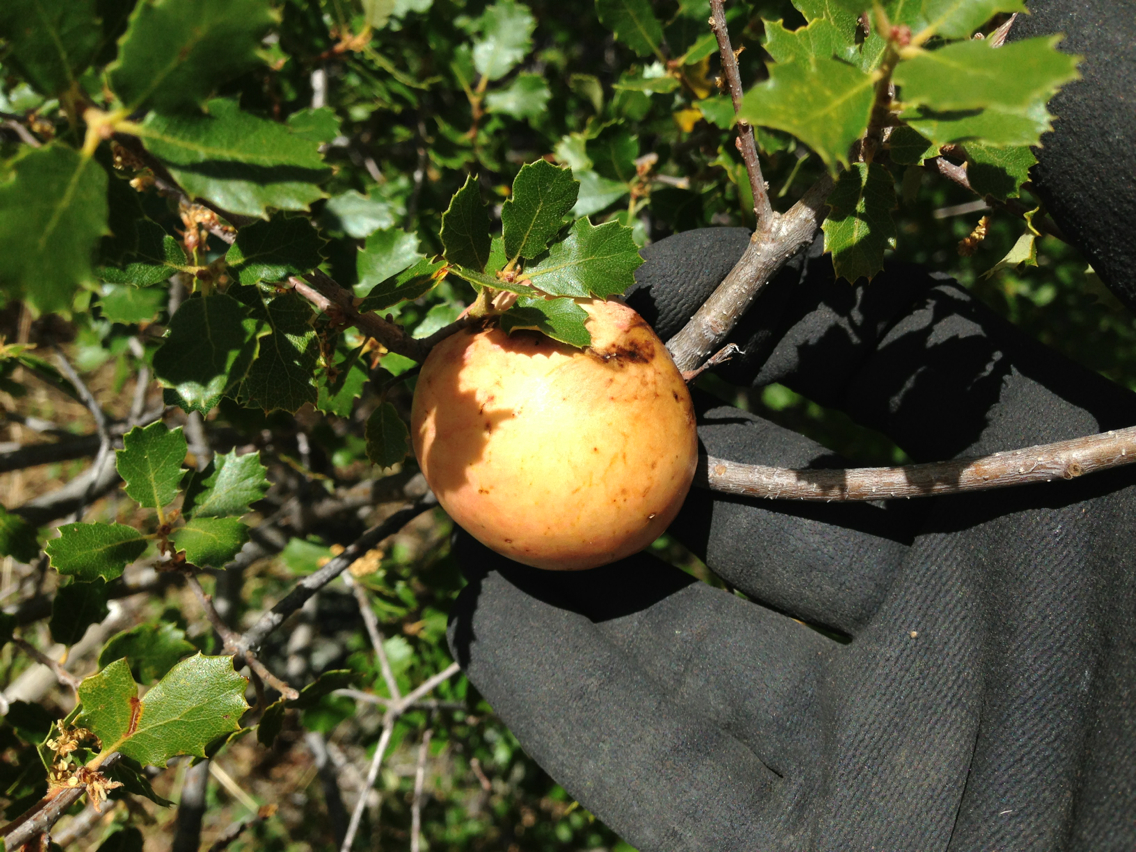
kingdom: Animalia
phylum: Arthropoda
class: Insecta
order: Hymenoptera
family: Cynipidae
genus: Andricus
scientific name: Andricus quercuscalifornicus
